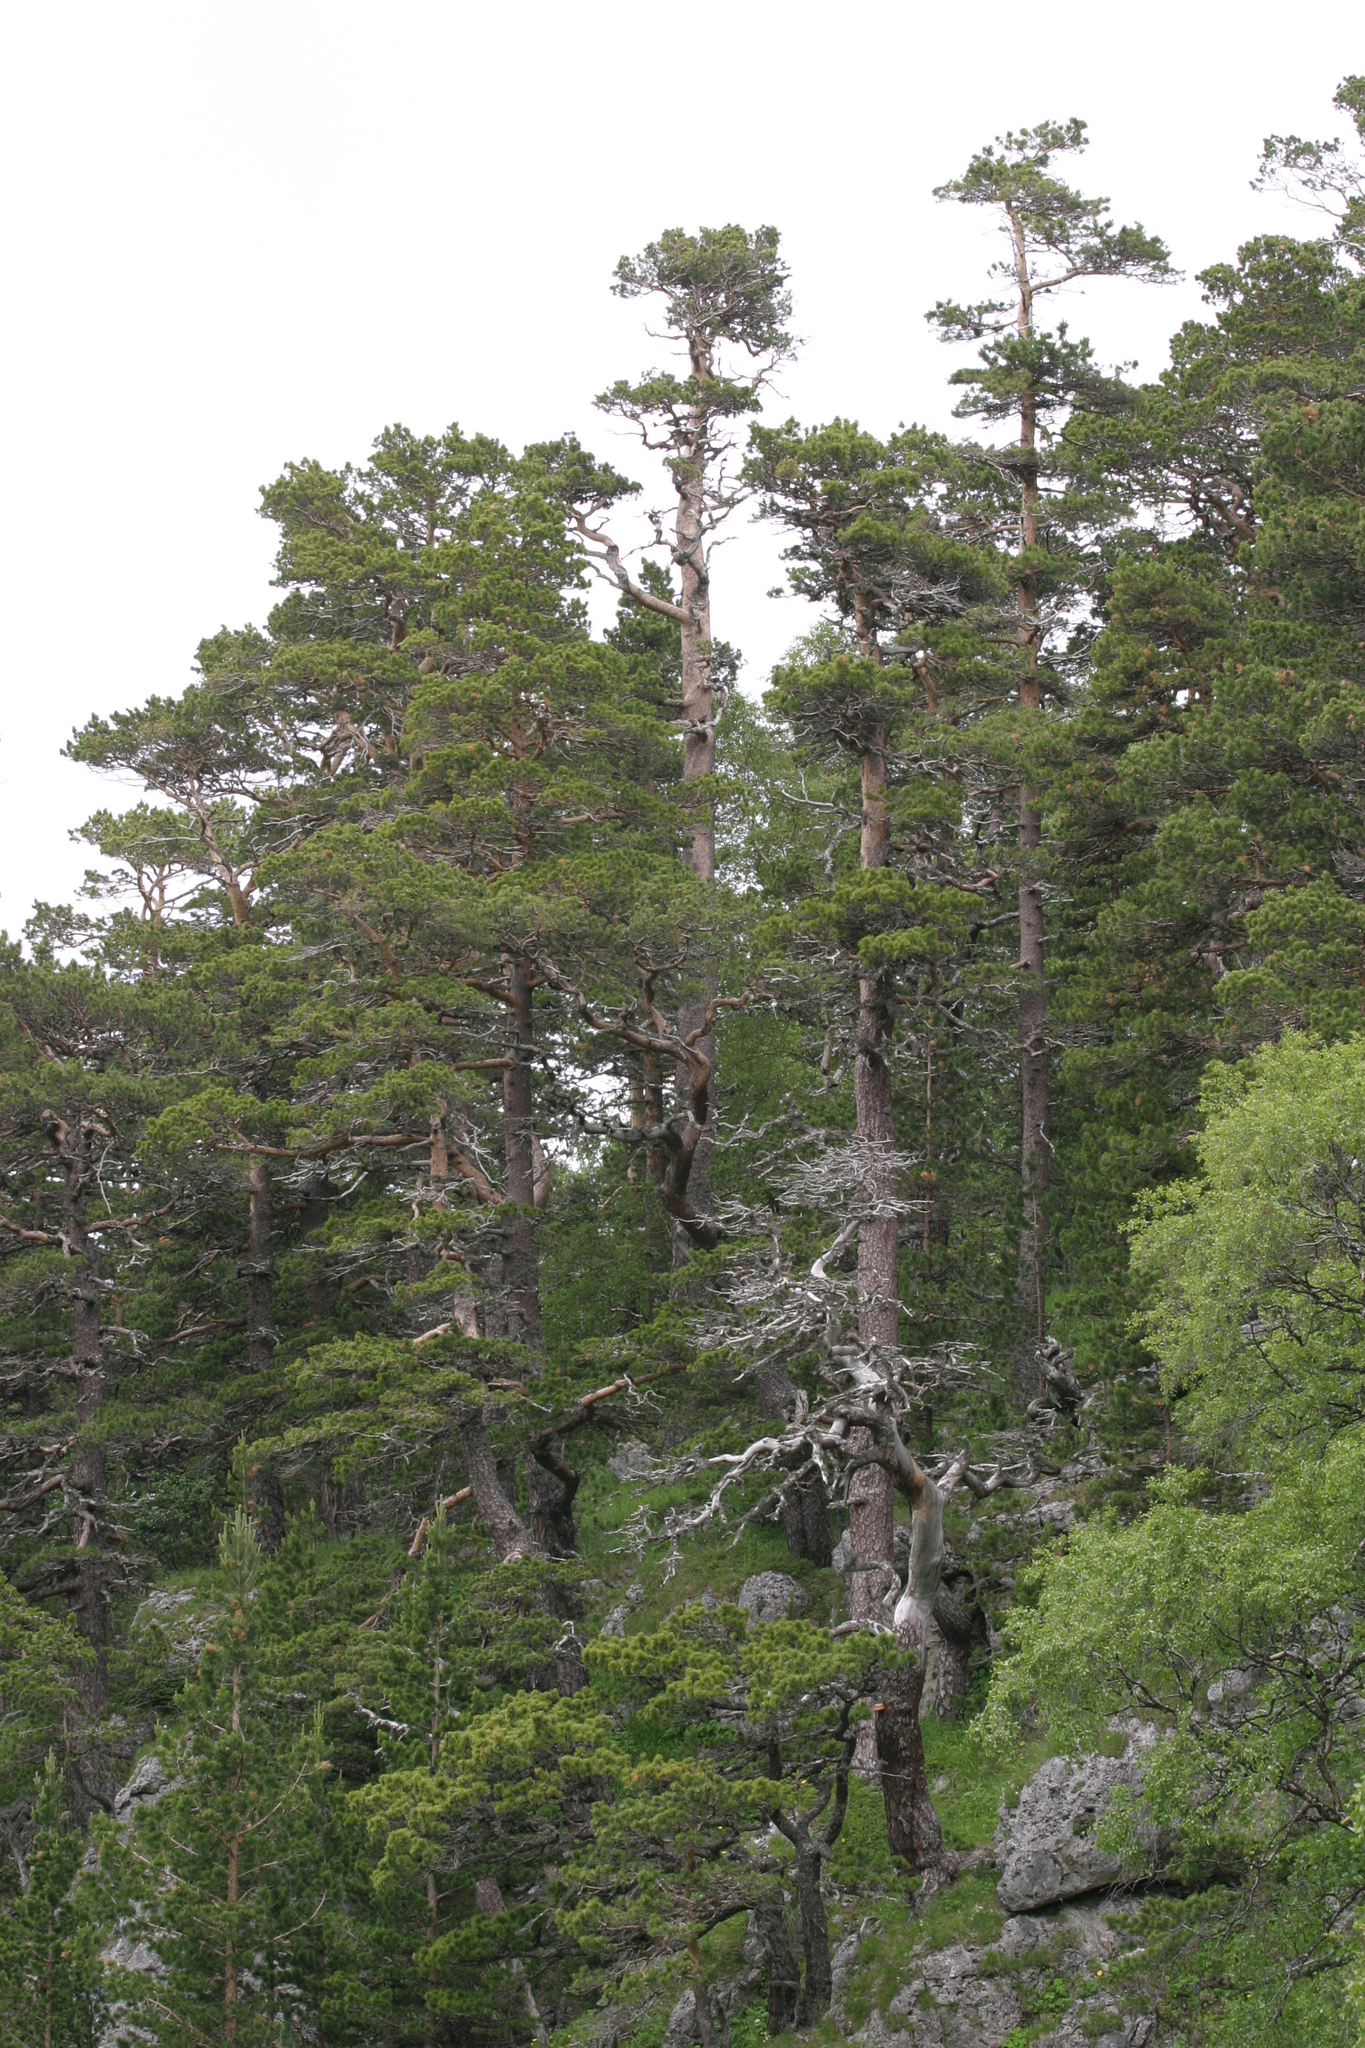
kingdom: Plantae
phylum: Tracheophyta
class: Pinopsida
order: Pinales
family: Pinaceae
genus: Pinus
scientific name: Pinus sylvestris
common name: Scots pine
